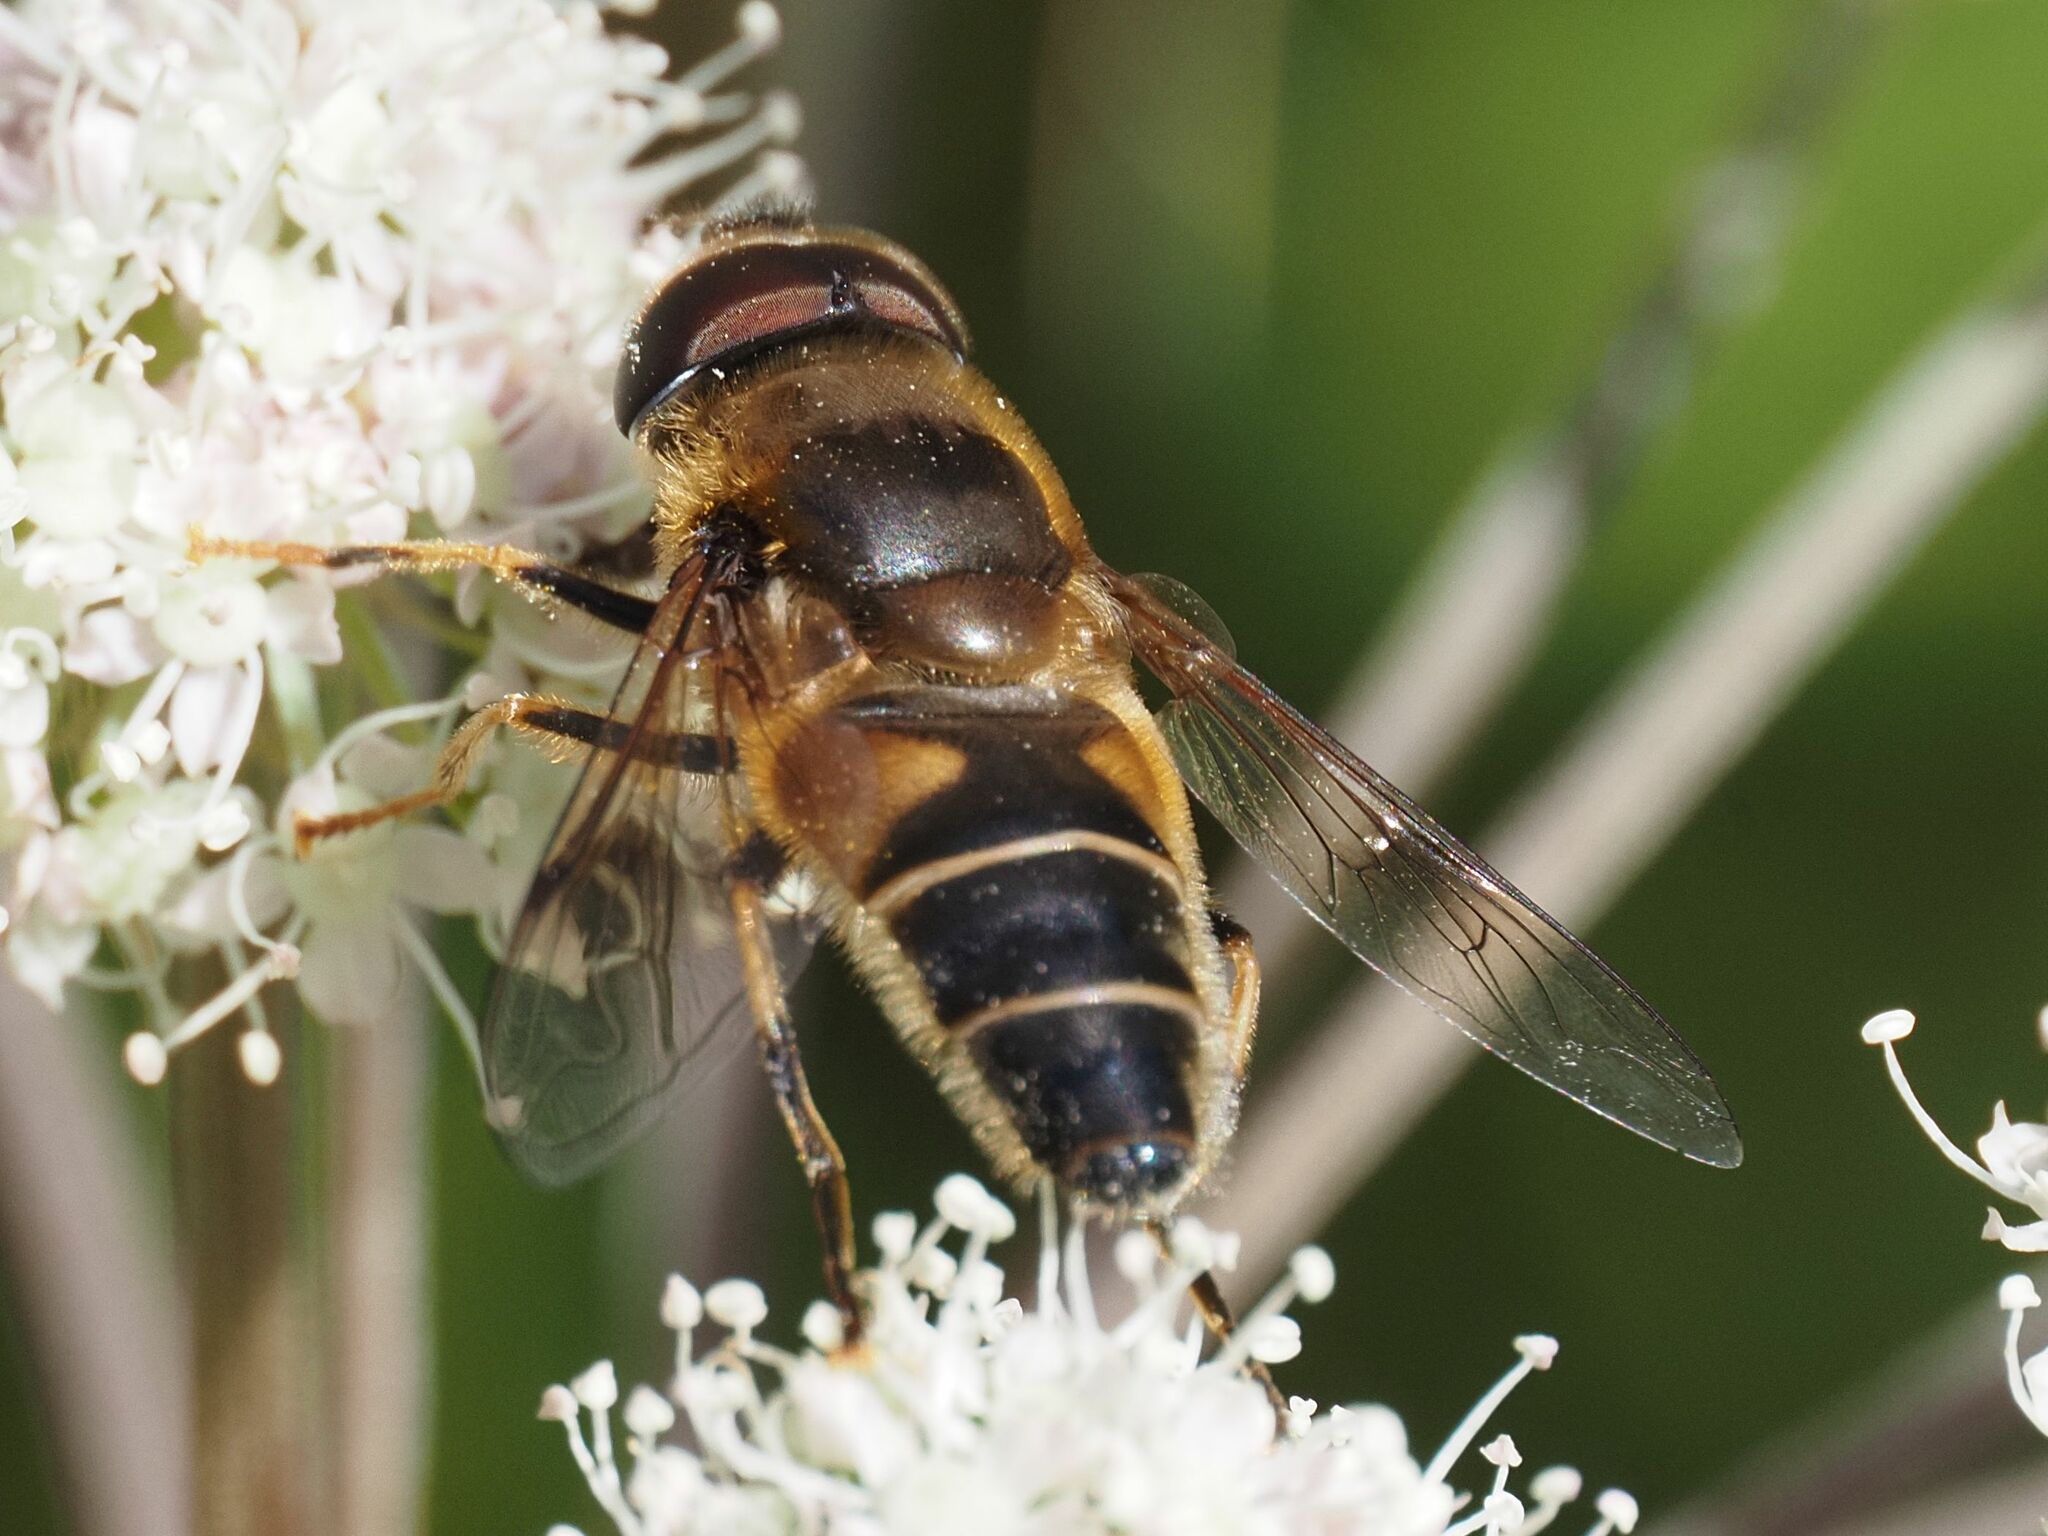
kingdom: Animalia
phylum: Arthropoda
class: Insecta
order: Diptera
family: Syrphidae
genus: Eristalis
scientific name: Eristalis pertinax
